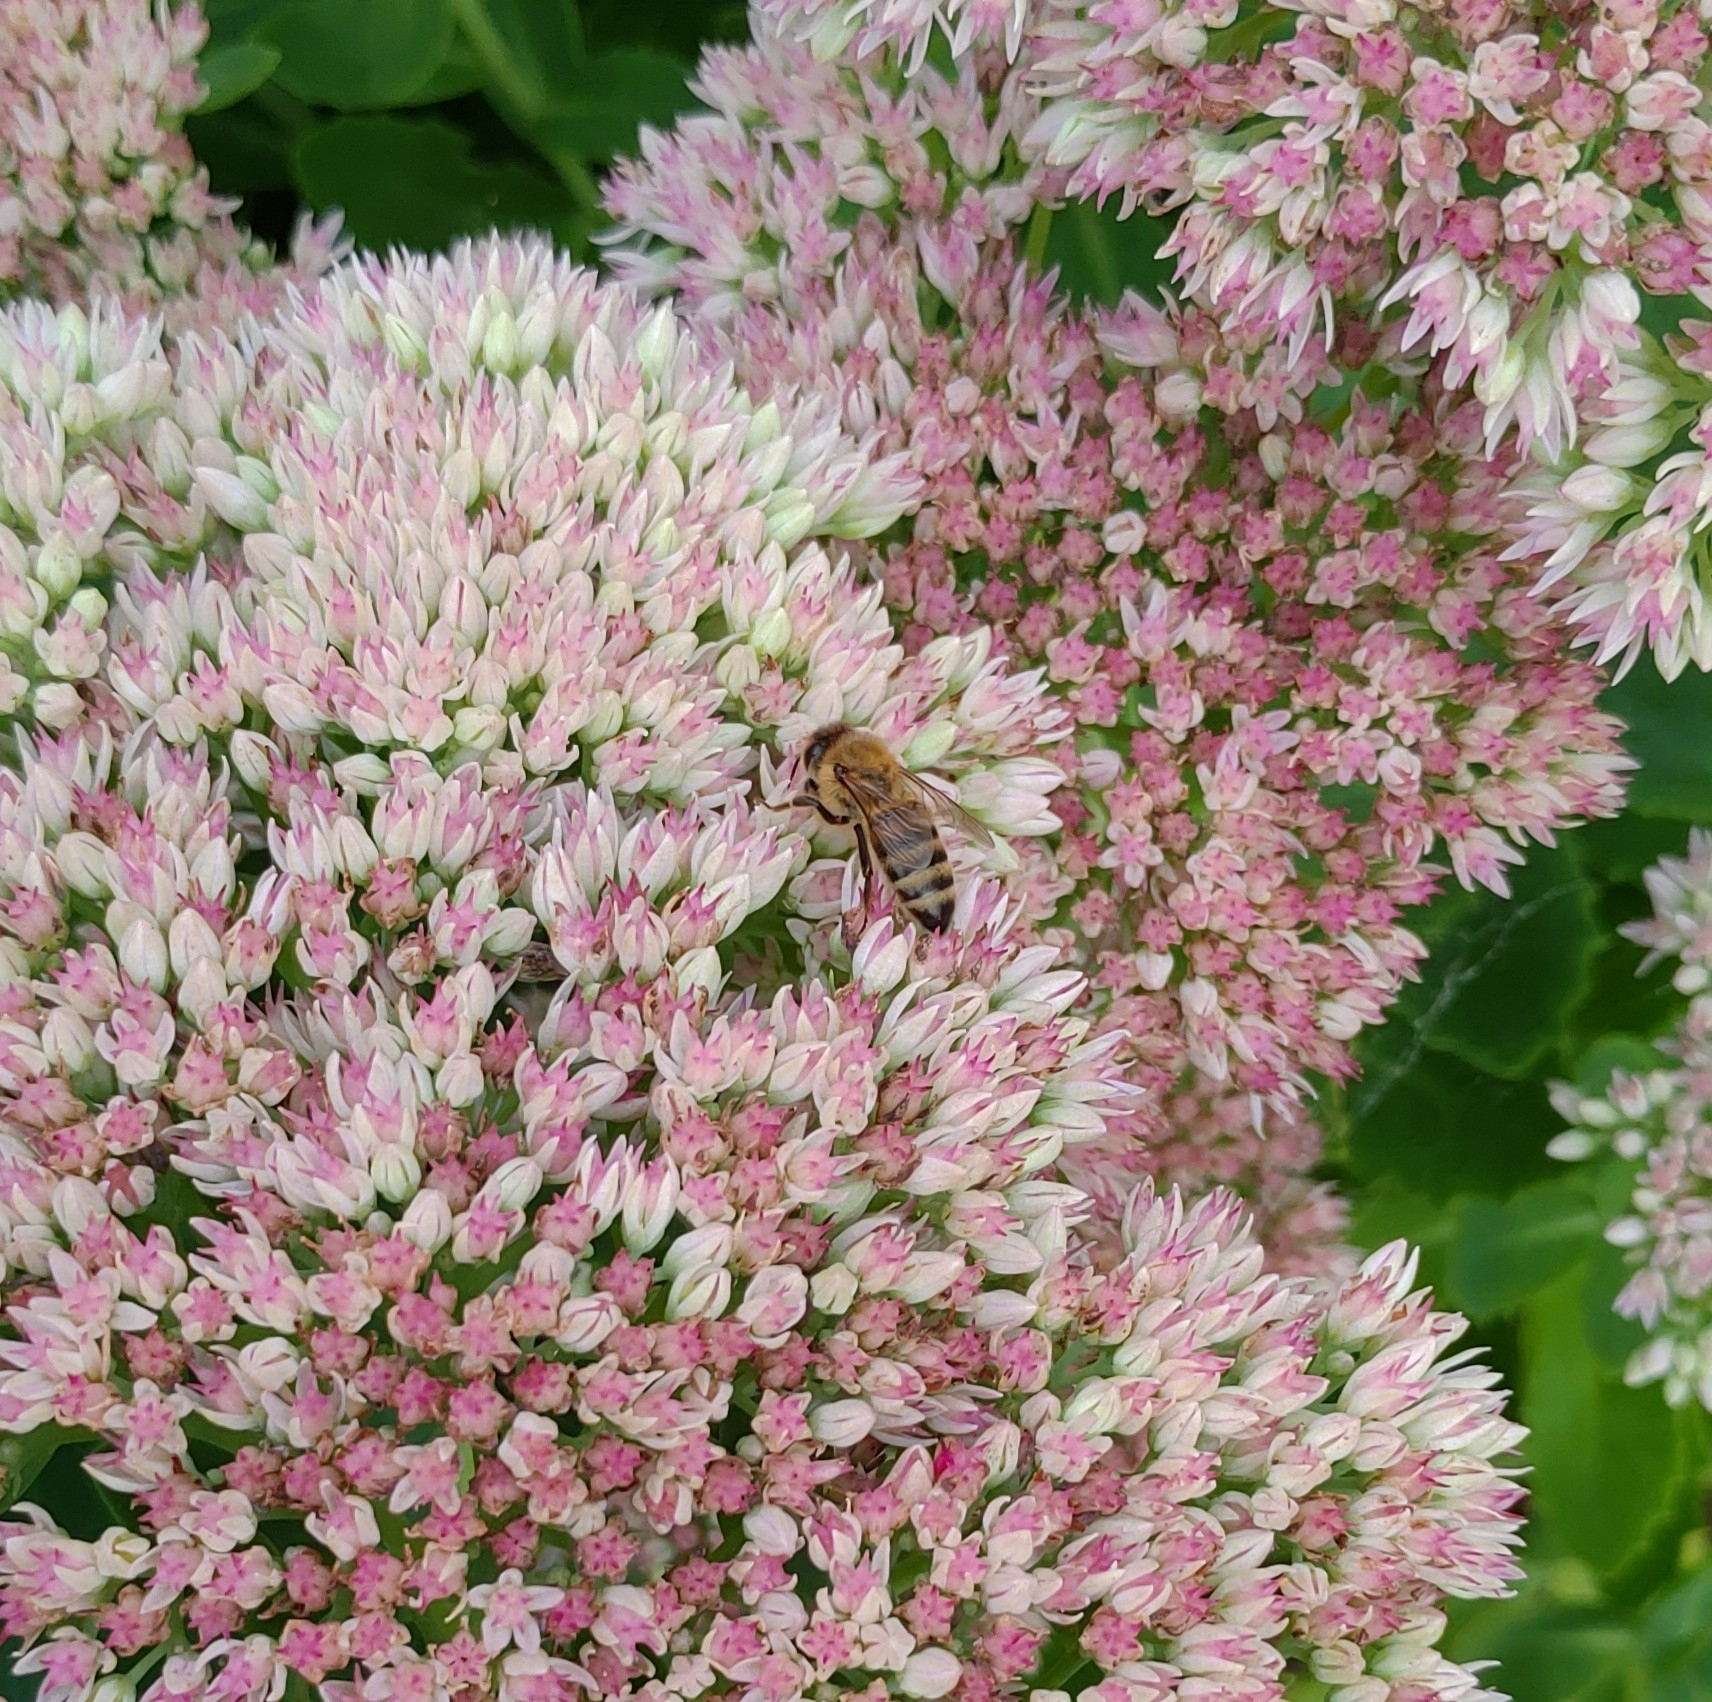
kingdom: Animalia
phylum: Arthropoda
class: Insecta
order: Hymenoptera
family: Apidae
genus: Apis
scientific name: Apis mellifera
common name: Honey bee
